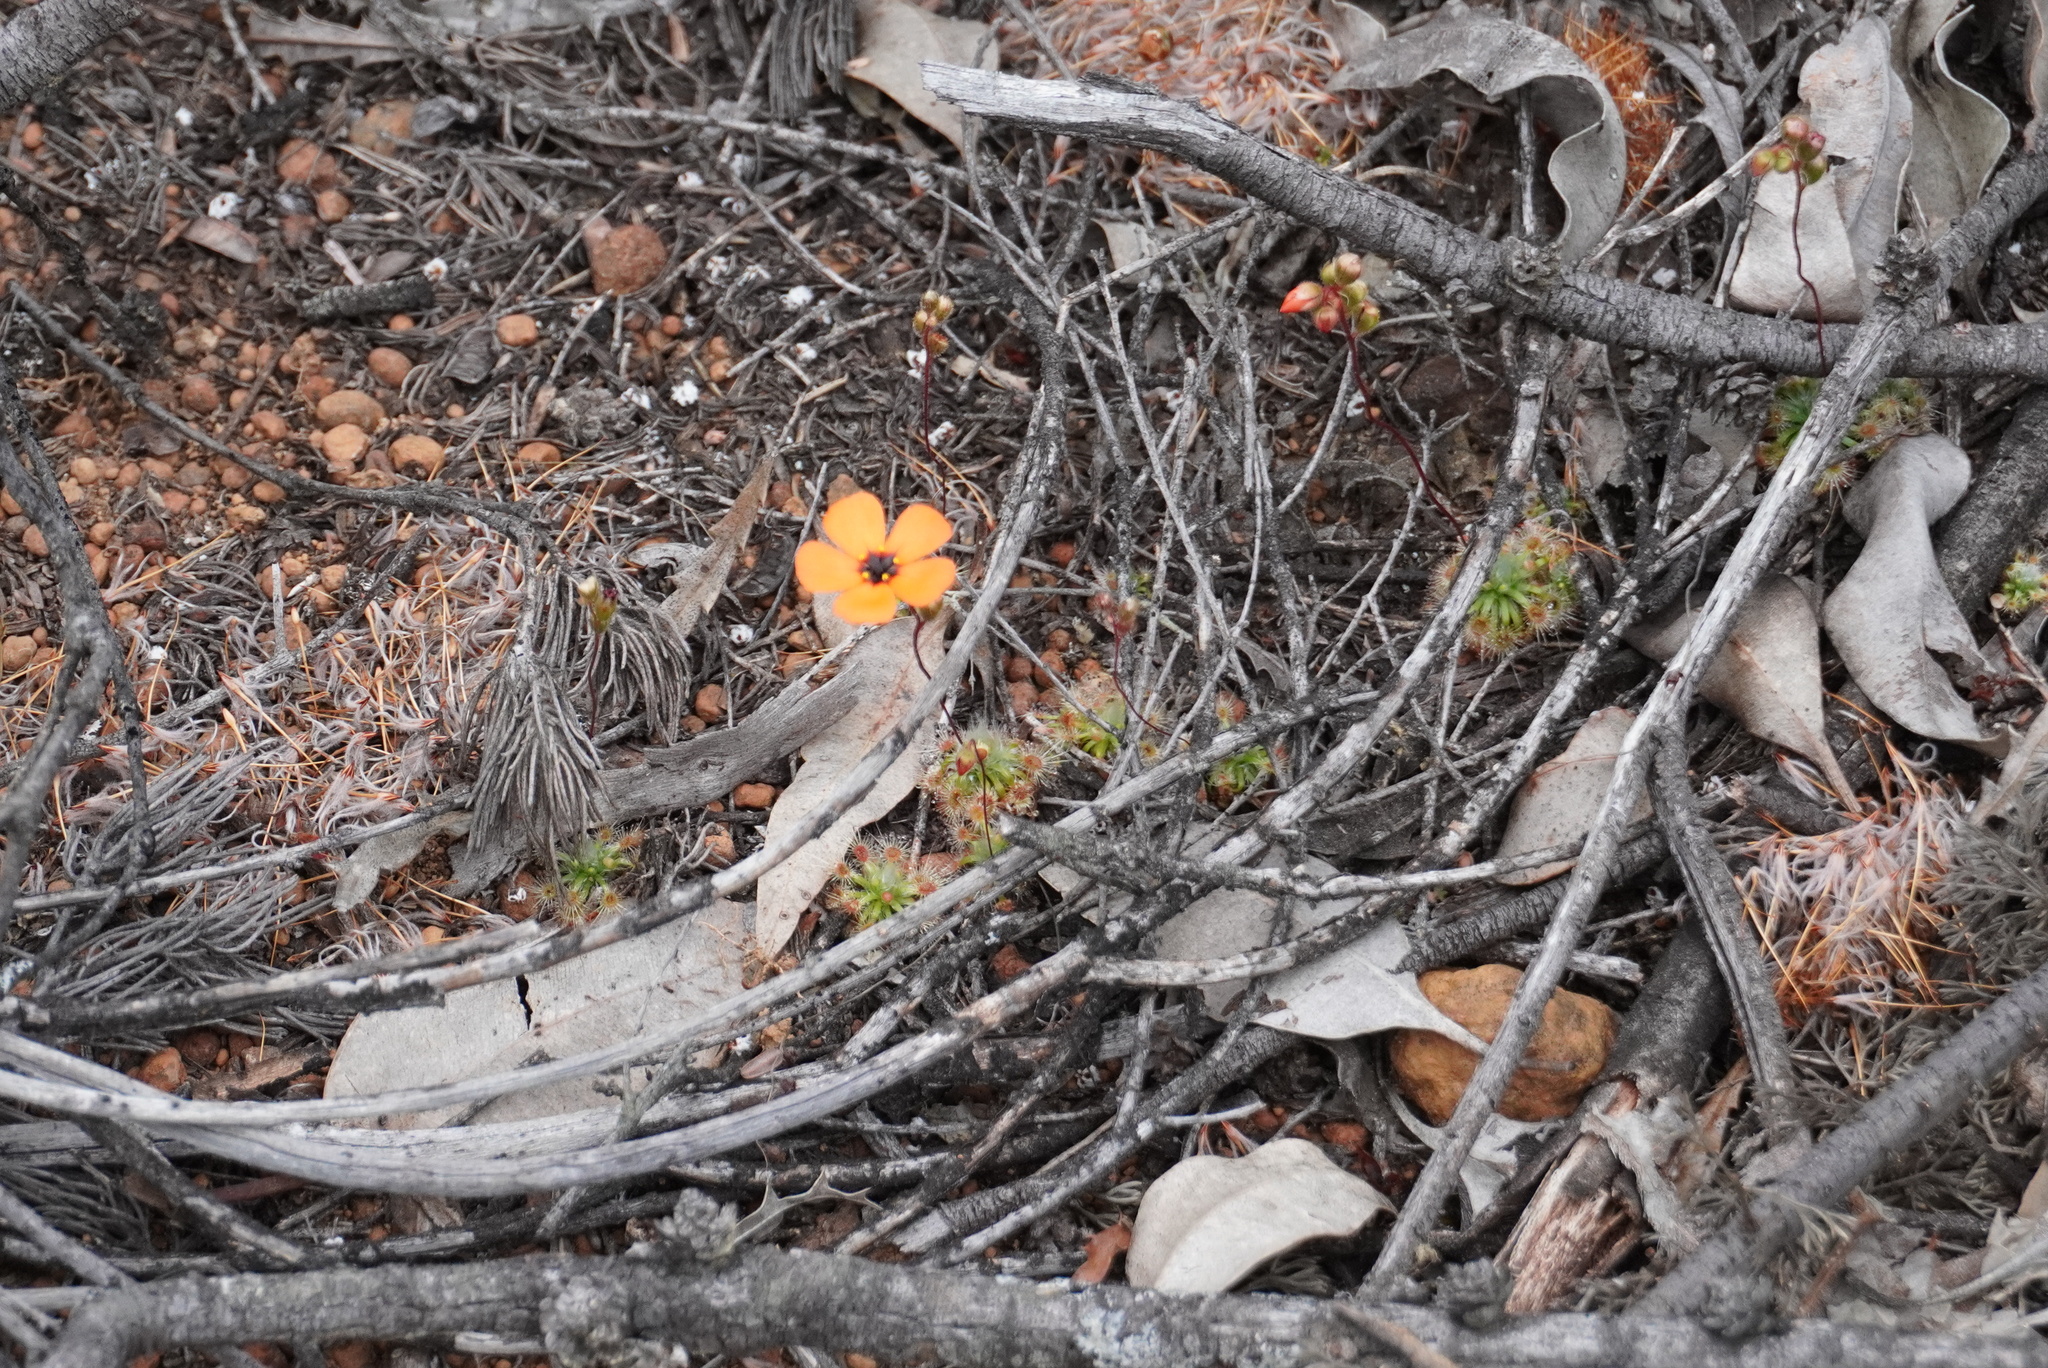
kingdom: Plantae
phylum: Tracheophyta
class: Magnoliopsida
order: Caryophyllales
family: Droseraceae
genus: Drosera
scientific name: Drosera hyperostigma
